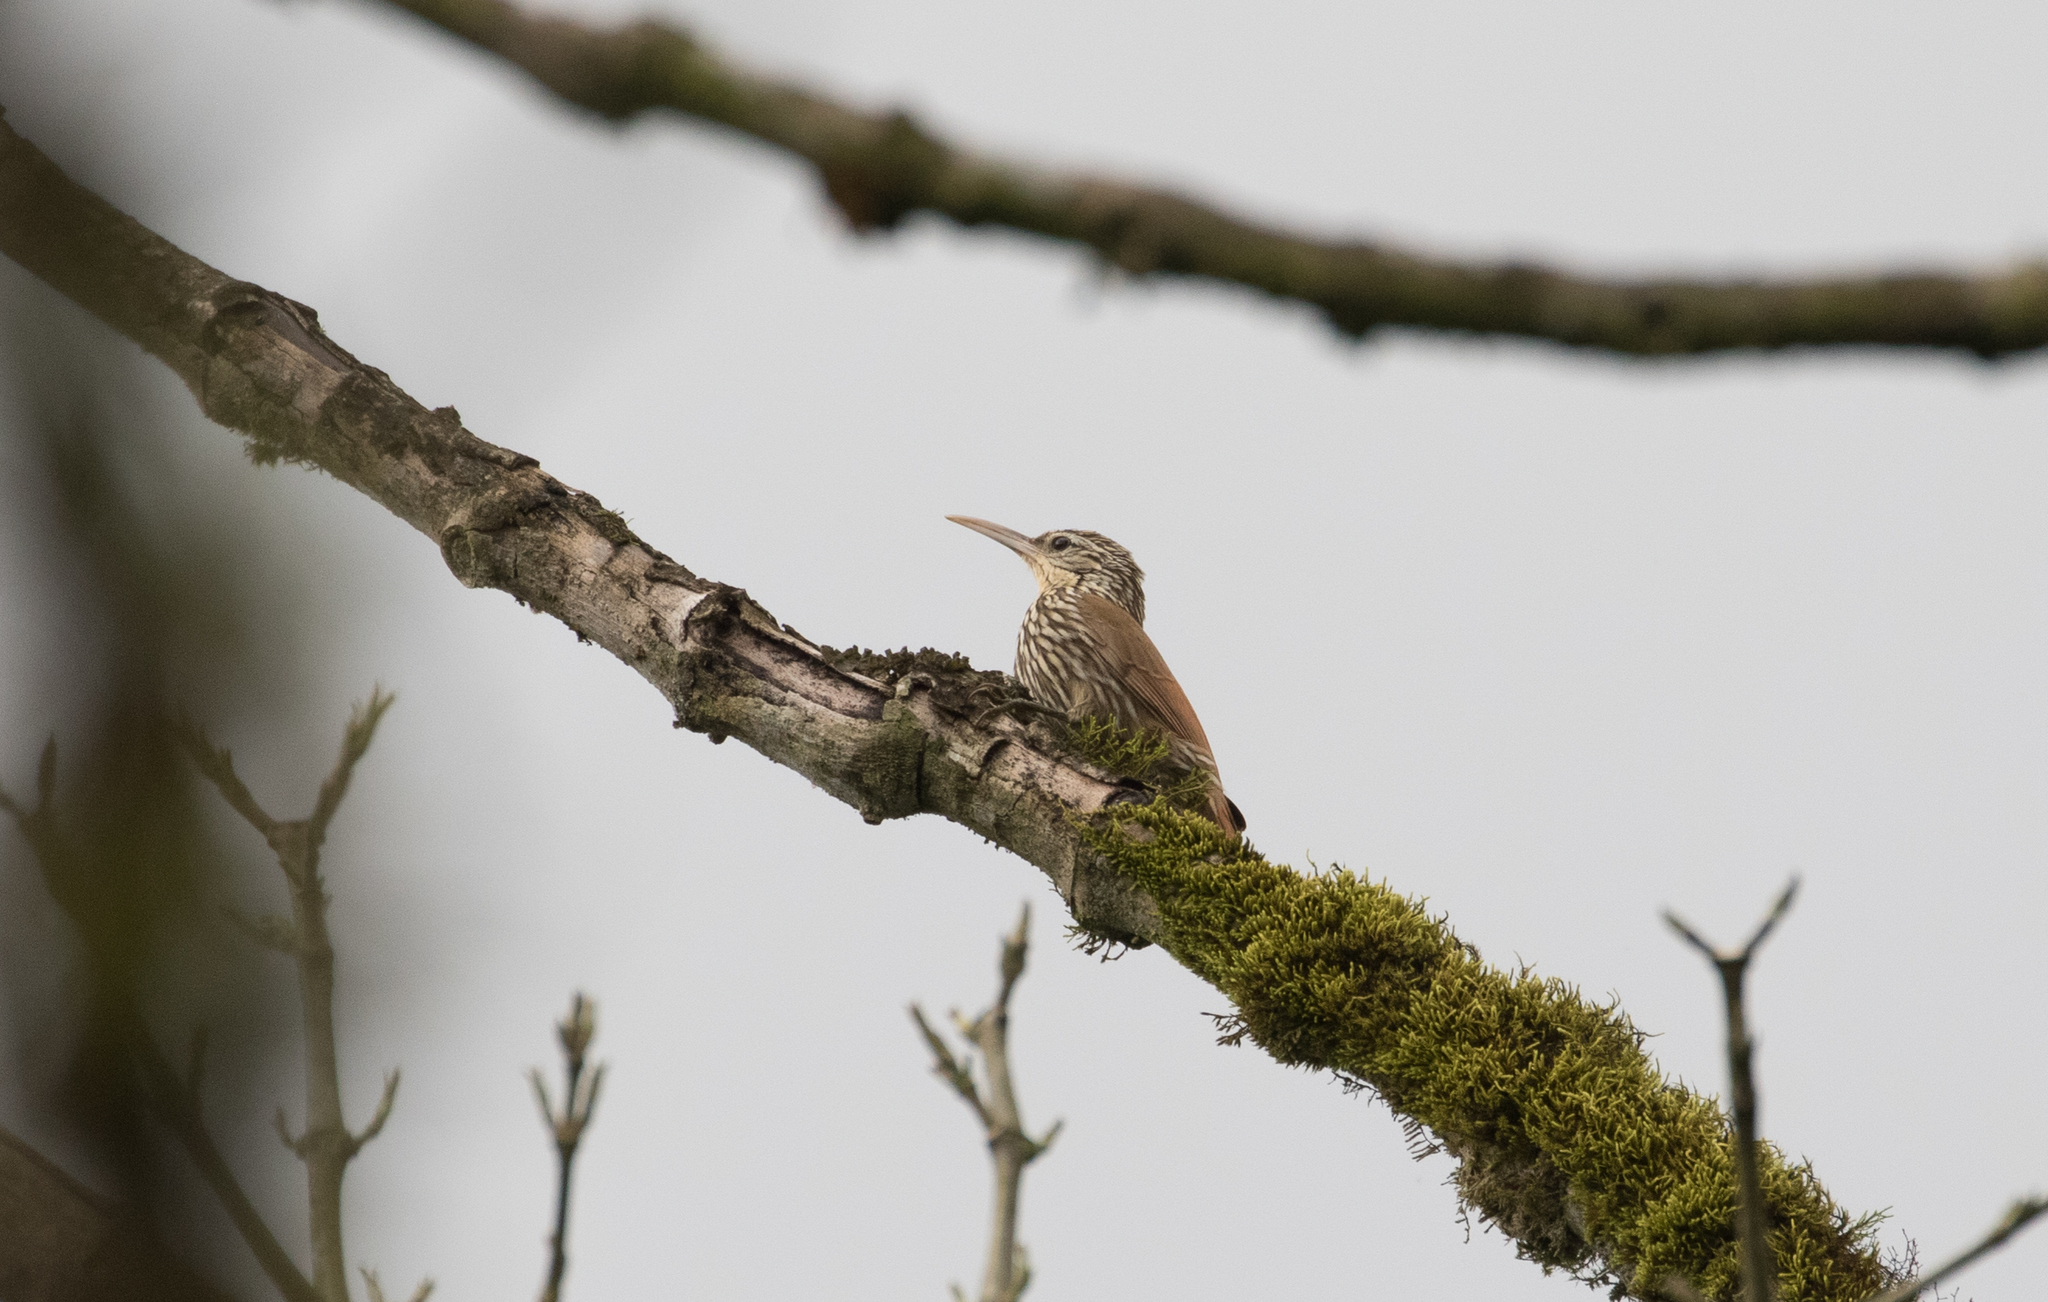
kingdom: Animalia
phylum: Chordata
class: Aves
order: Passeriformes
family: Furnariidae
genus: Lepidocolaptes
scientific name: Lepidocolaptes souleyetii
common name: Streak-headed woodcreeper
